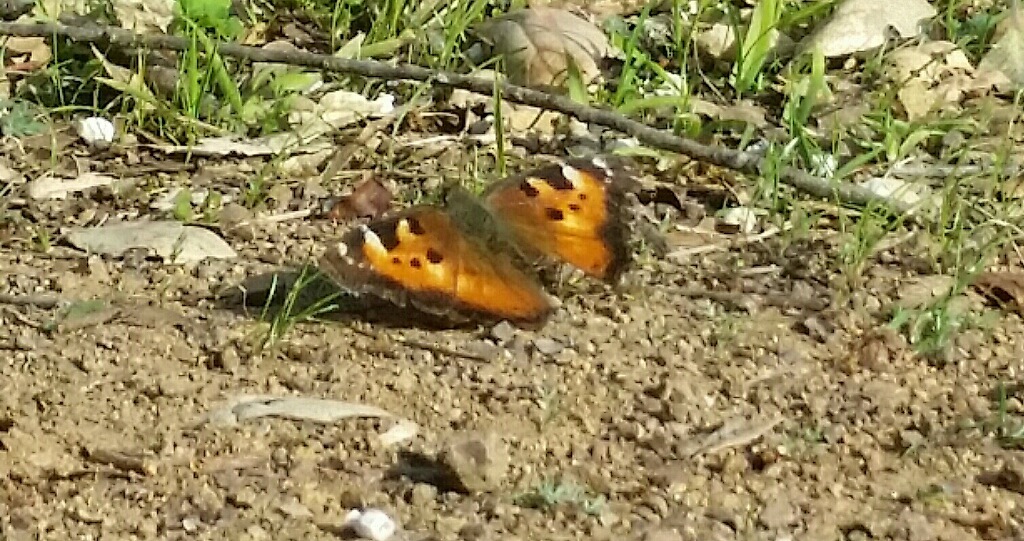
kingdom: Animalia
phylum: Arthropoda
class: Insecta
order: Lepidoptera
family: Nymphalidae
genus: Nymphalis
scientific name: Nymphalis californica
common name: California tortoiseshell
